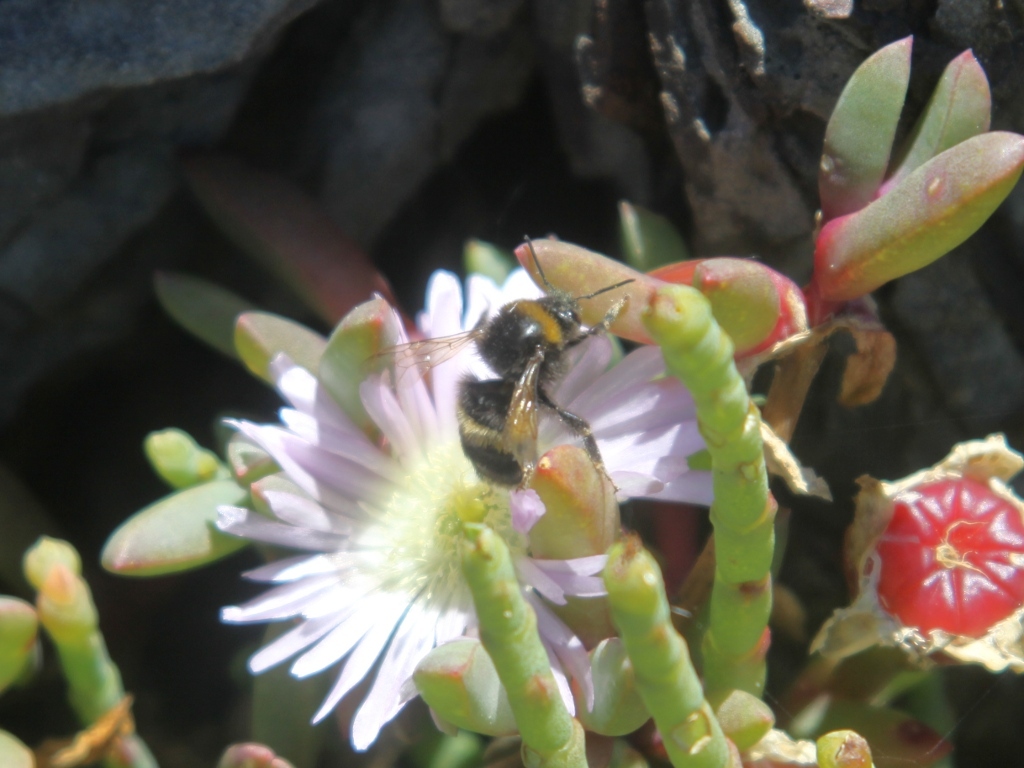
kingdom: Animalia
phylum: Arthropoda
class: Insecta
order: Hymenoptera
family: Apidae
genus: Bombus
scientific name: Bombus terrestris
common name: Buff-tailed bumblebee
